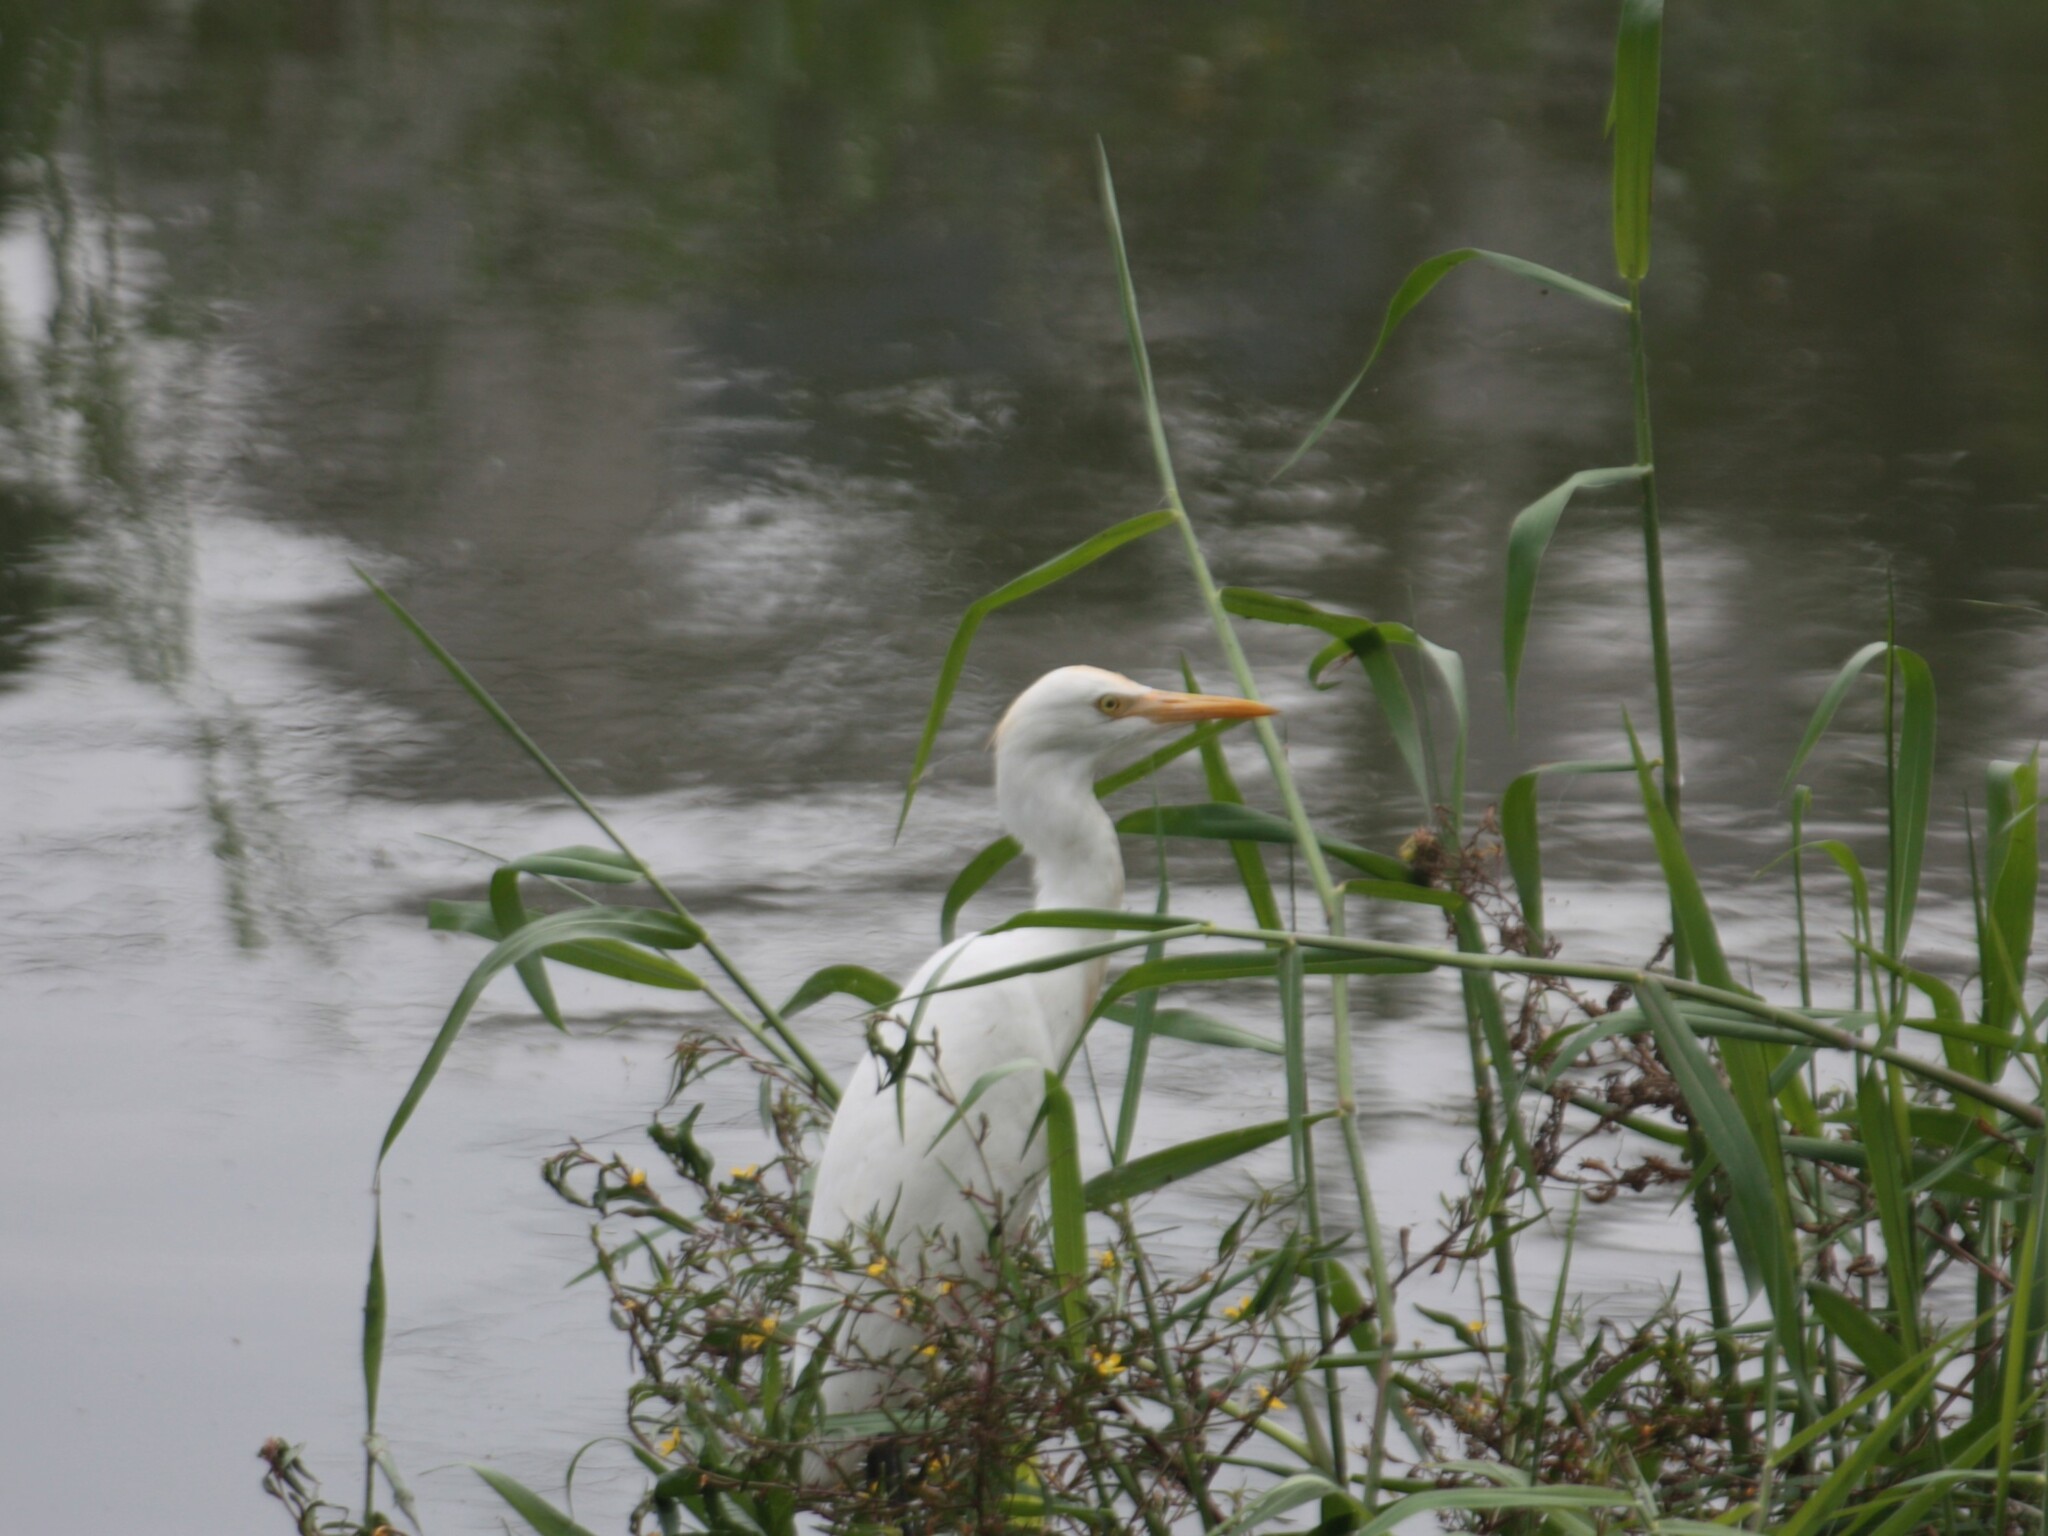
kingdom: Animalia
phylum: Chordata
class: Aves
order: Pelecaniformes
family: Ardeidae
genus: Bubulcus
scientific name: Bubulcus coromandus
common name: Eastern cattle egret
